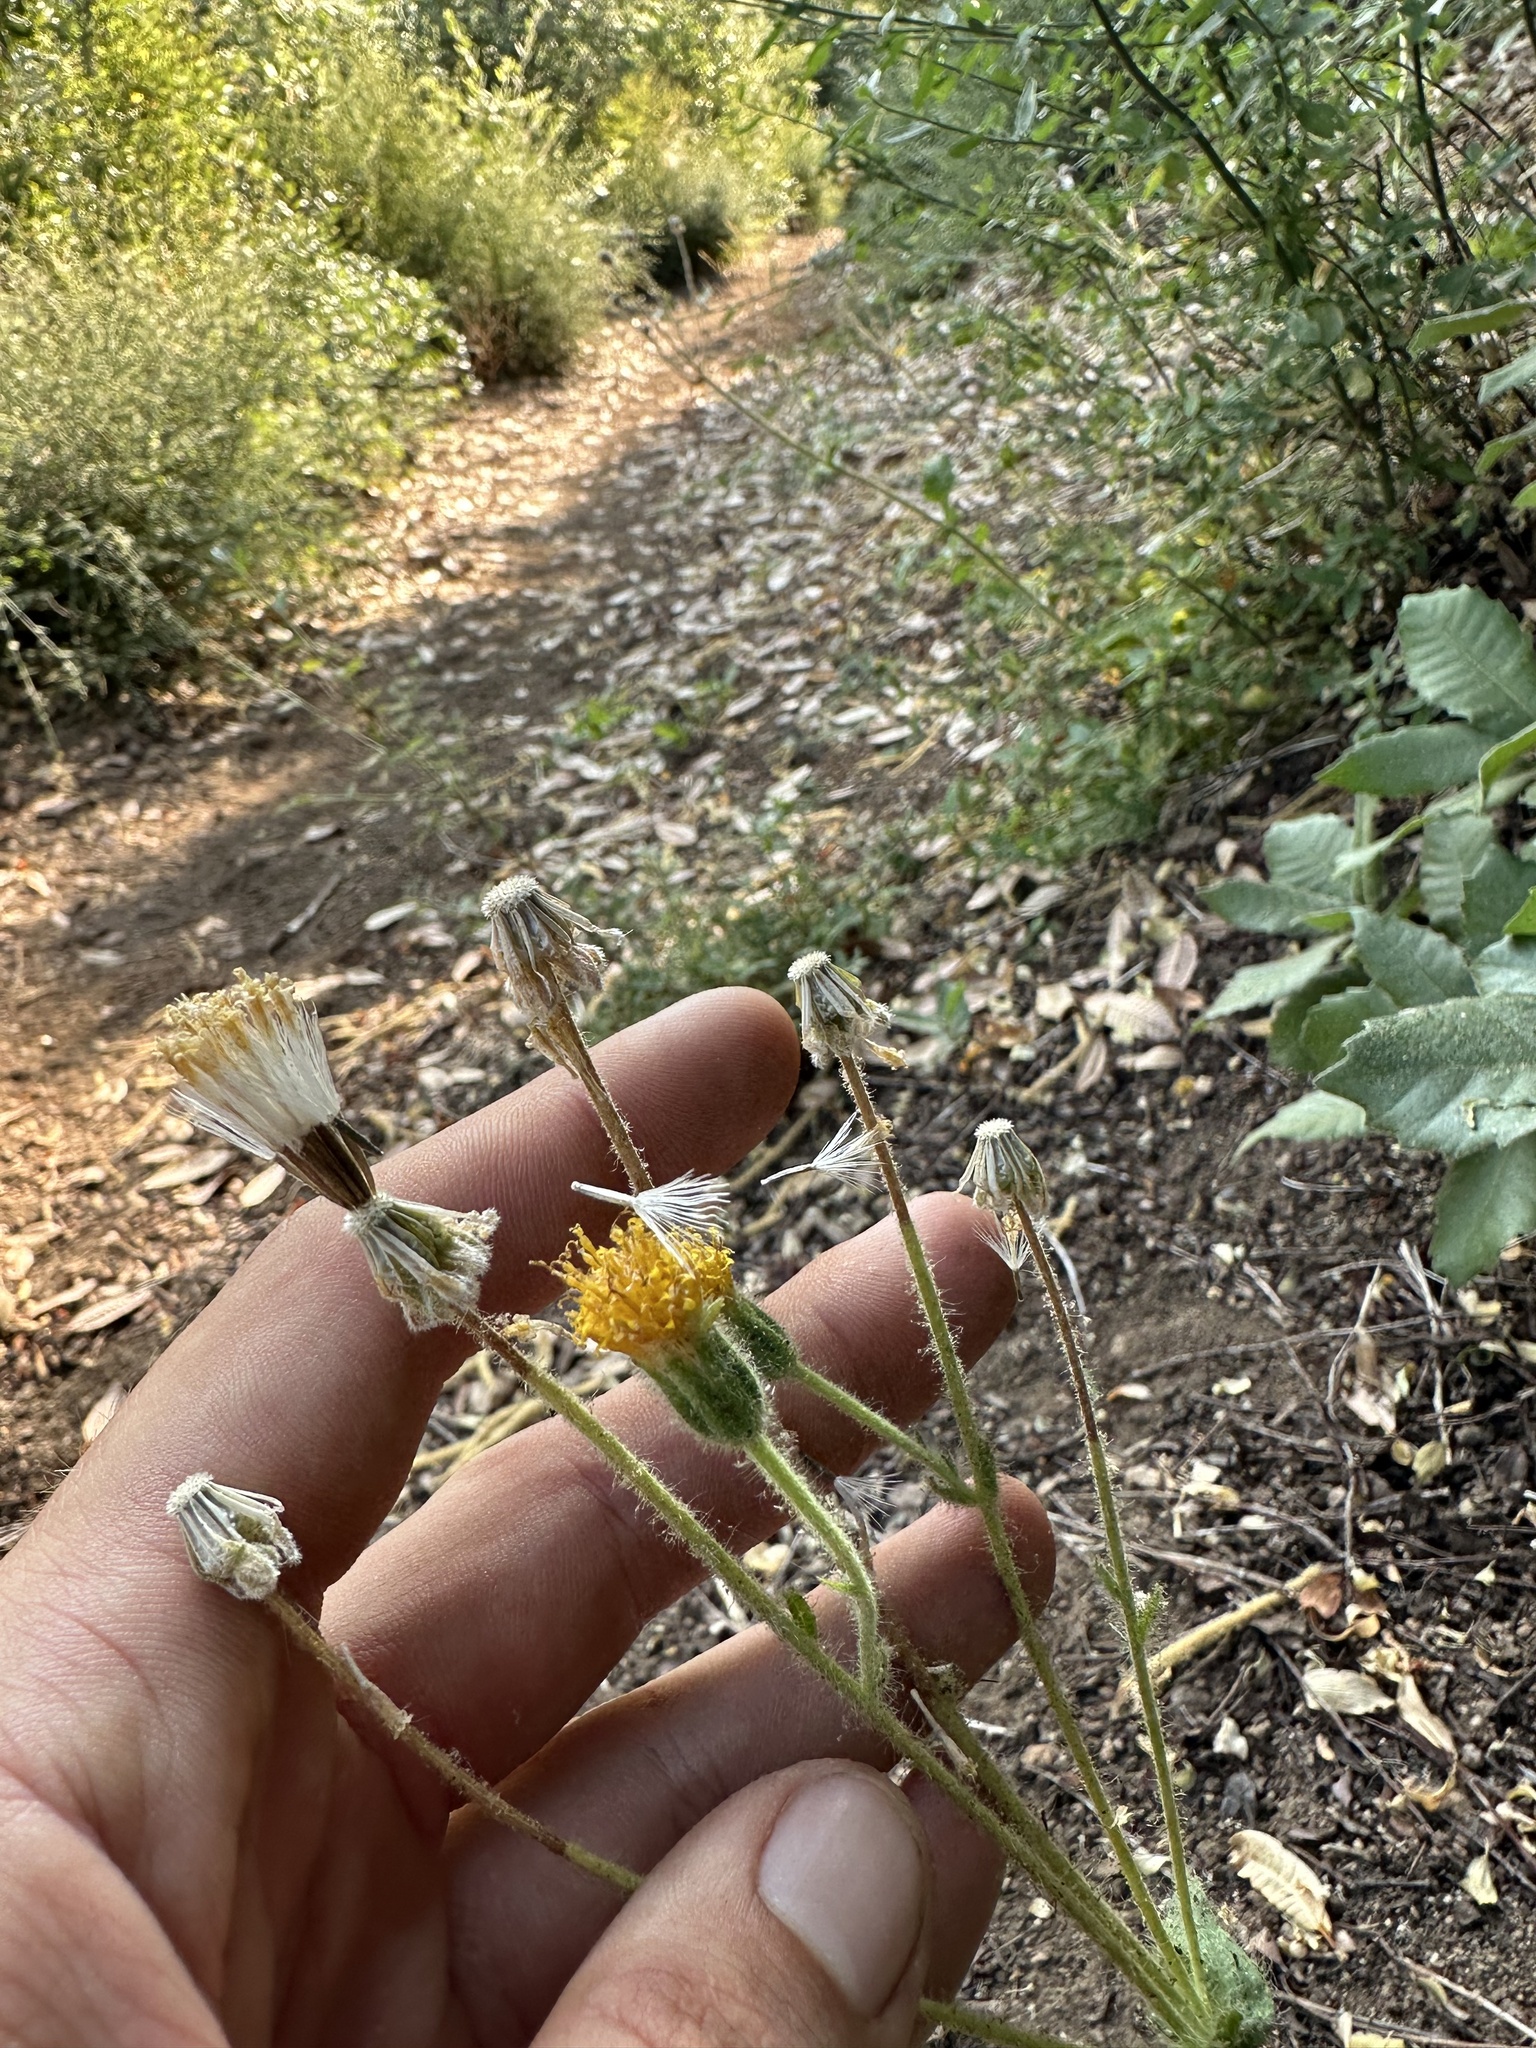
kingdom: Plantae
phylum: Tracheophyta
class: Magnoliopsida
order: Asterales
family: Asteraceae
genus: Arnica
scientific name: Arnica discoidea
